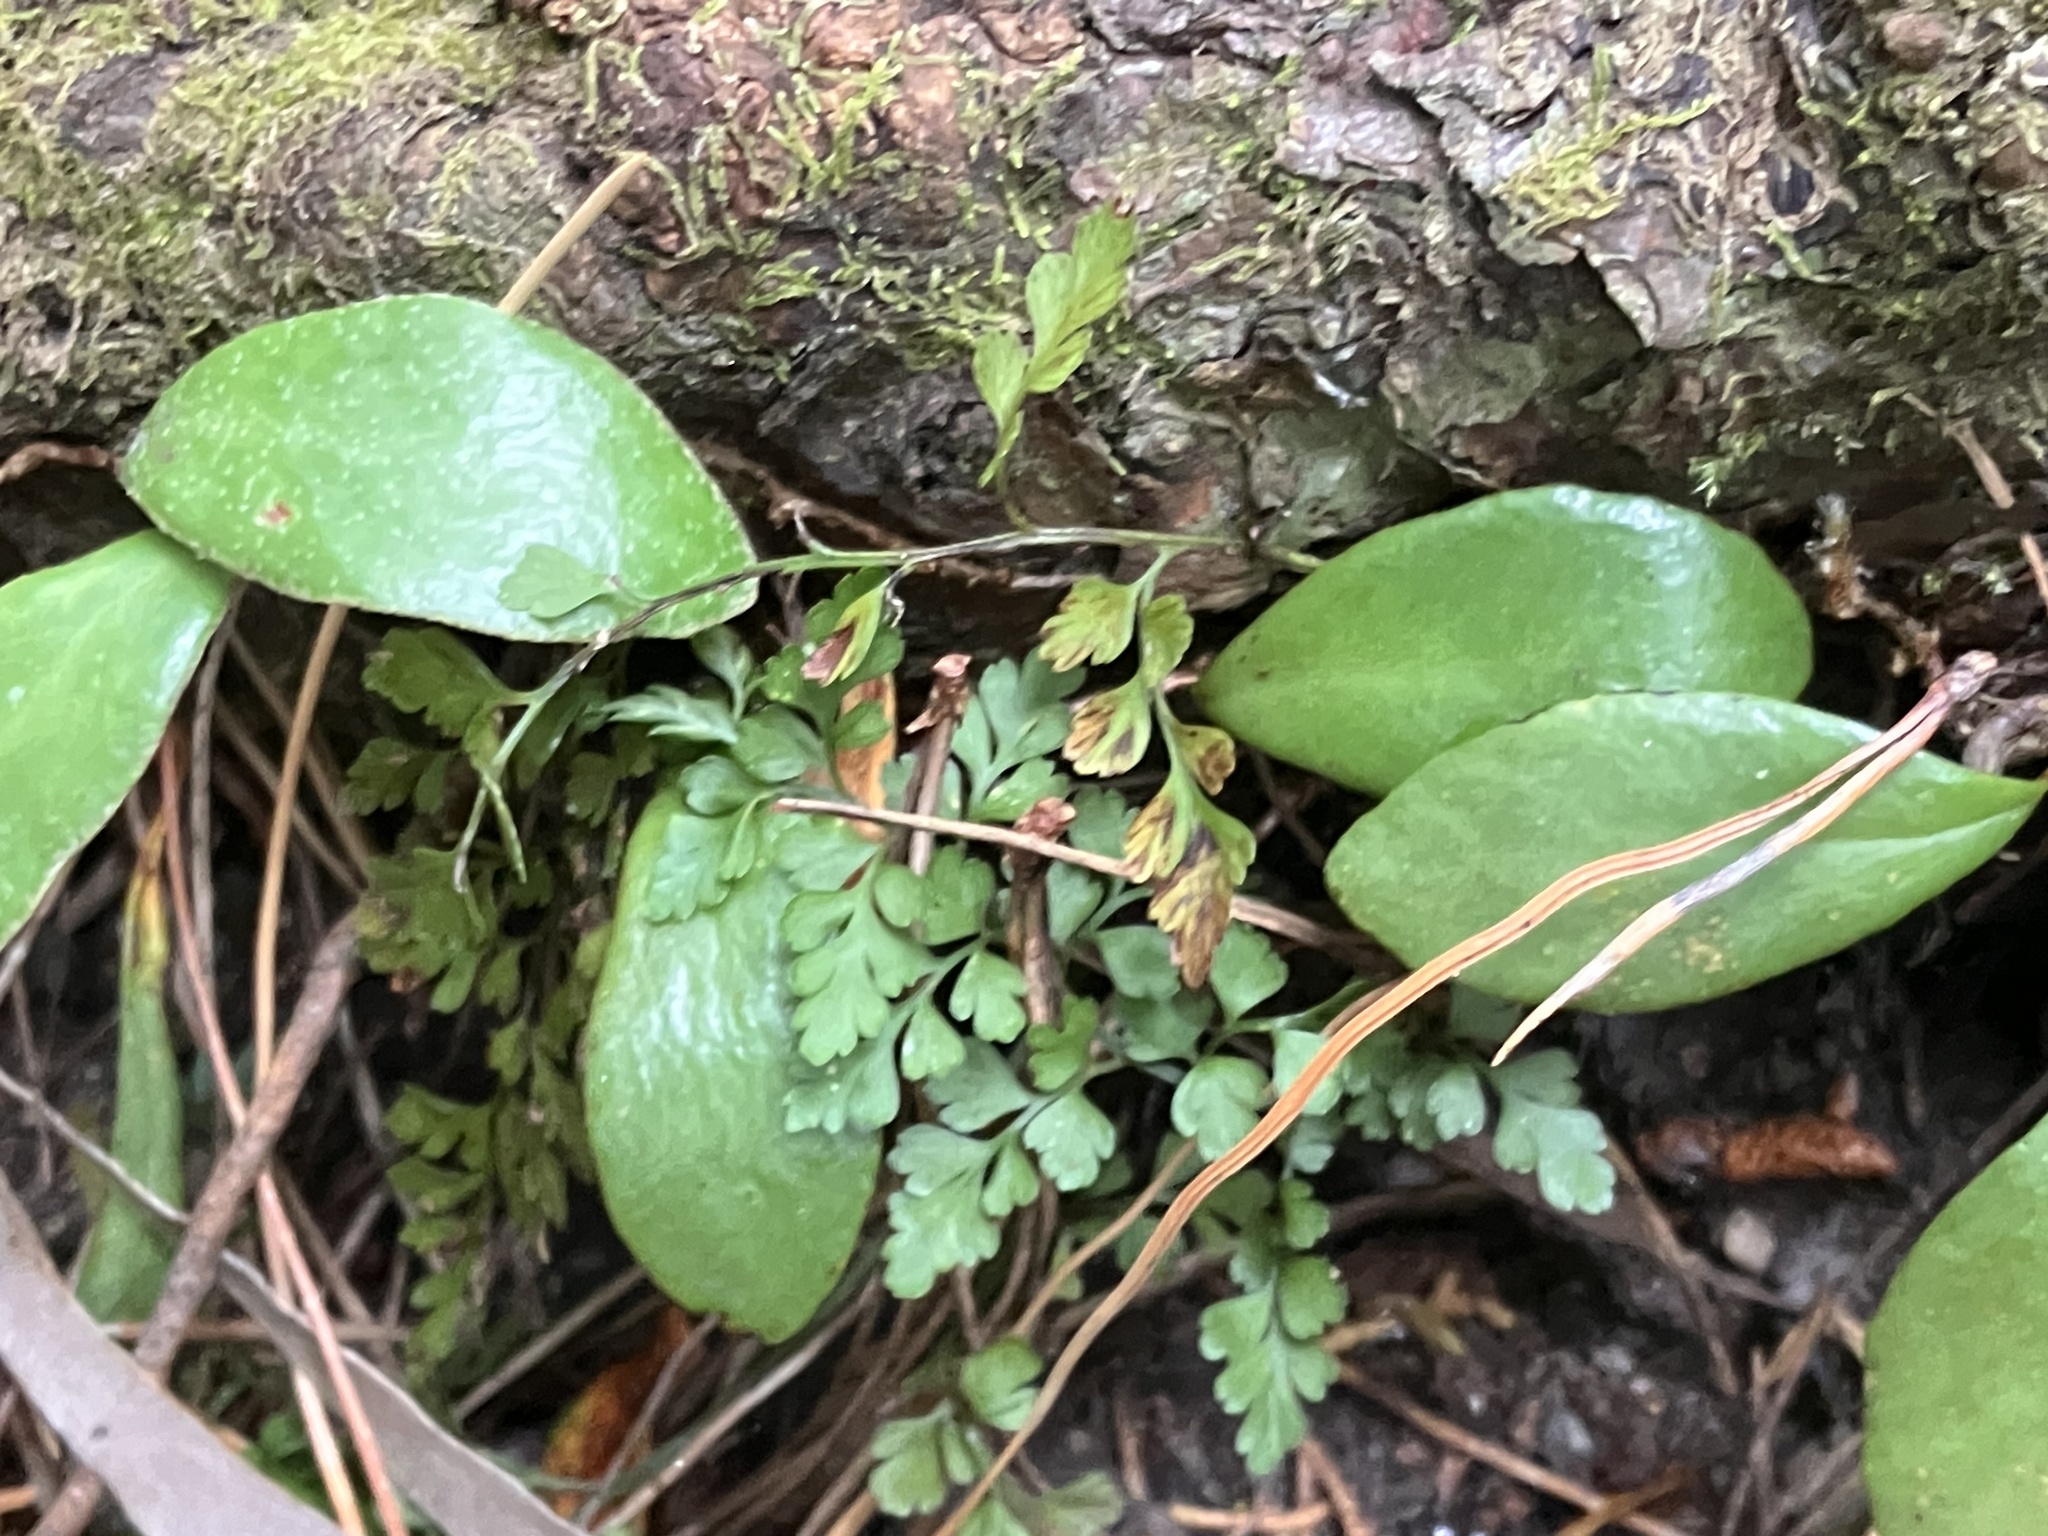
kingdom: Plantae
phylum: Tracheophyta
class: Polypodiopsida
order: Polypodiales
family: Aspleniaceae
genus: Asplenium
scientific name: Asplenium hookerianum
